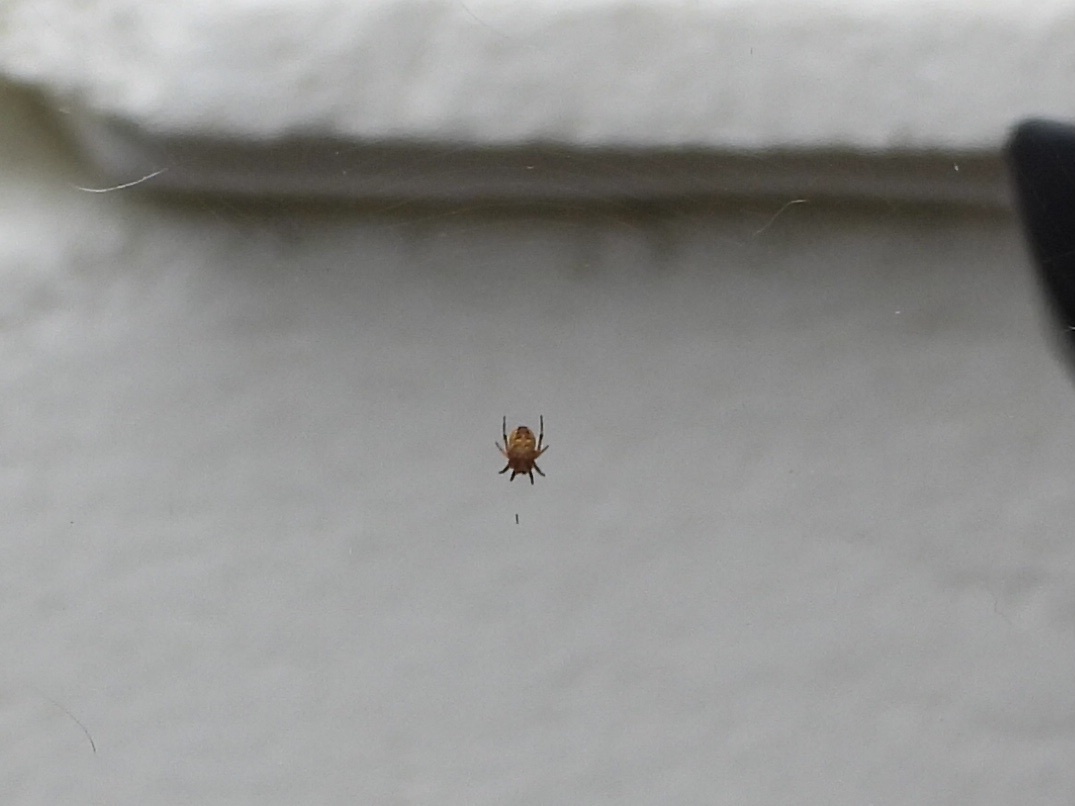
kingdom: Animalia
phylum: Arthropoda
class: Arachnida
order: Araneae
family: Araneidae
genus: Araneus
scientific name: Araneus diadematus
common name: Cross orbweaver
